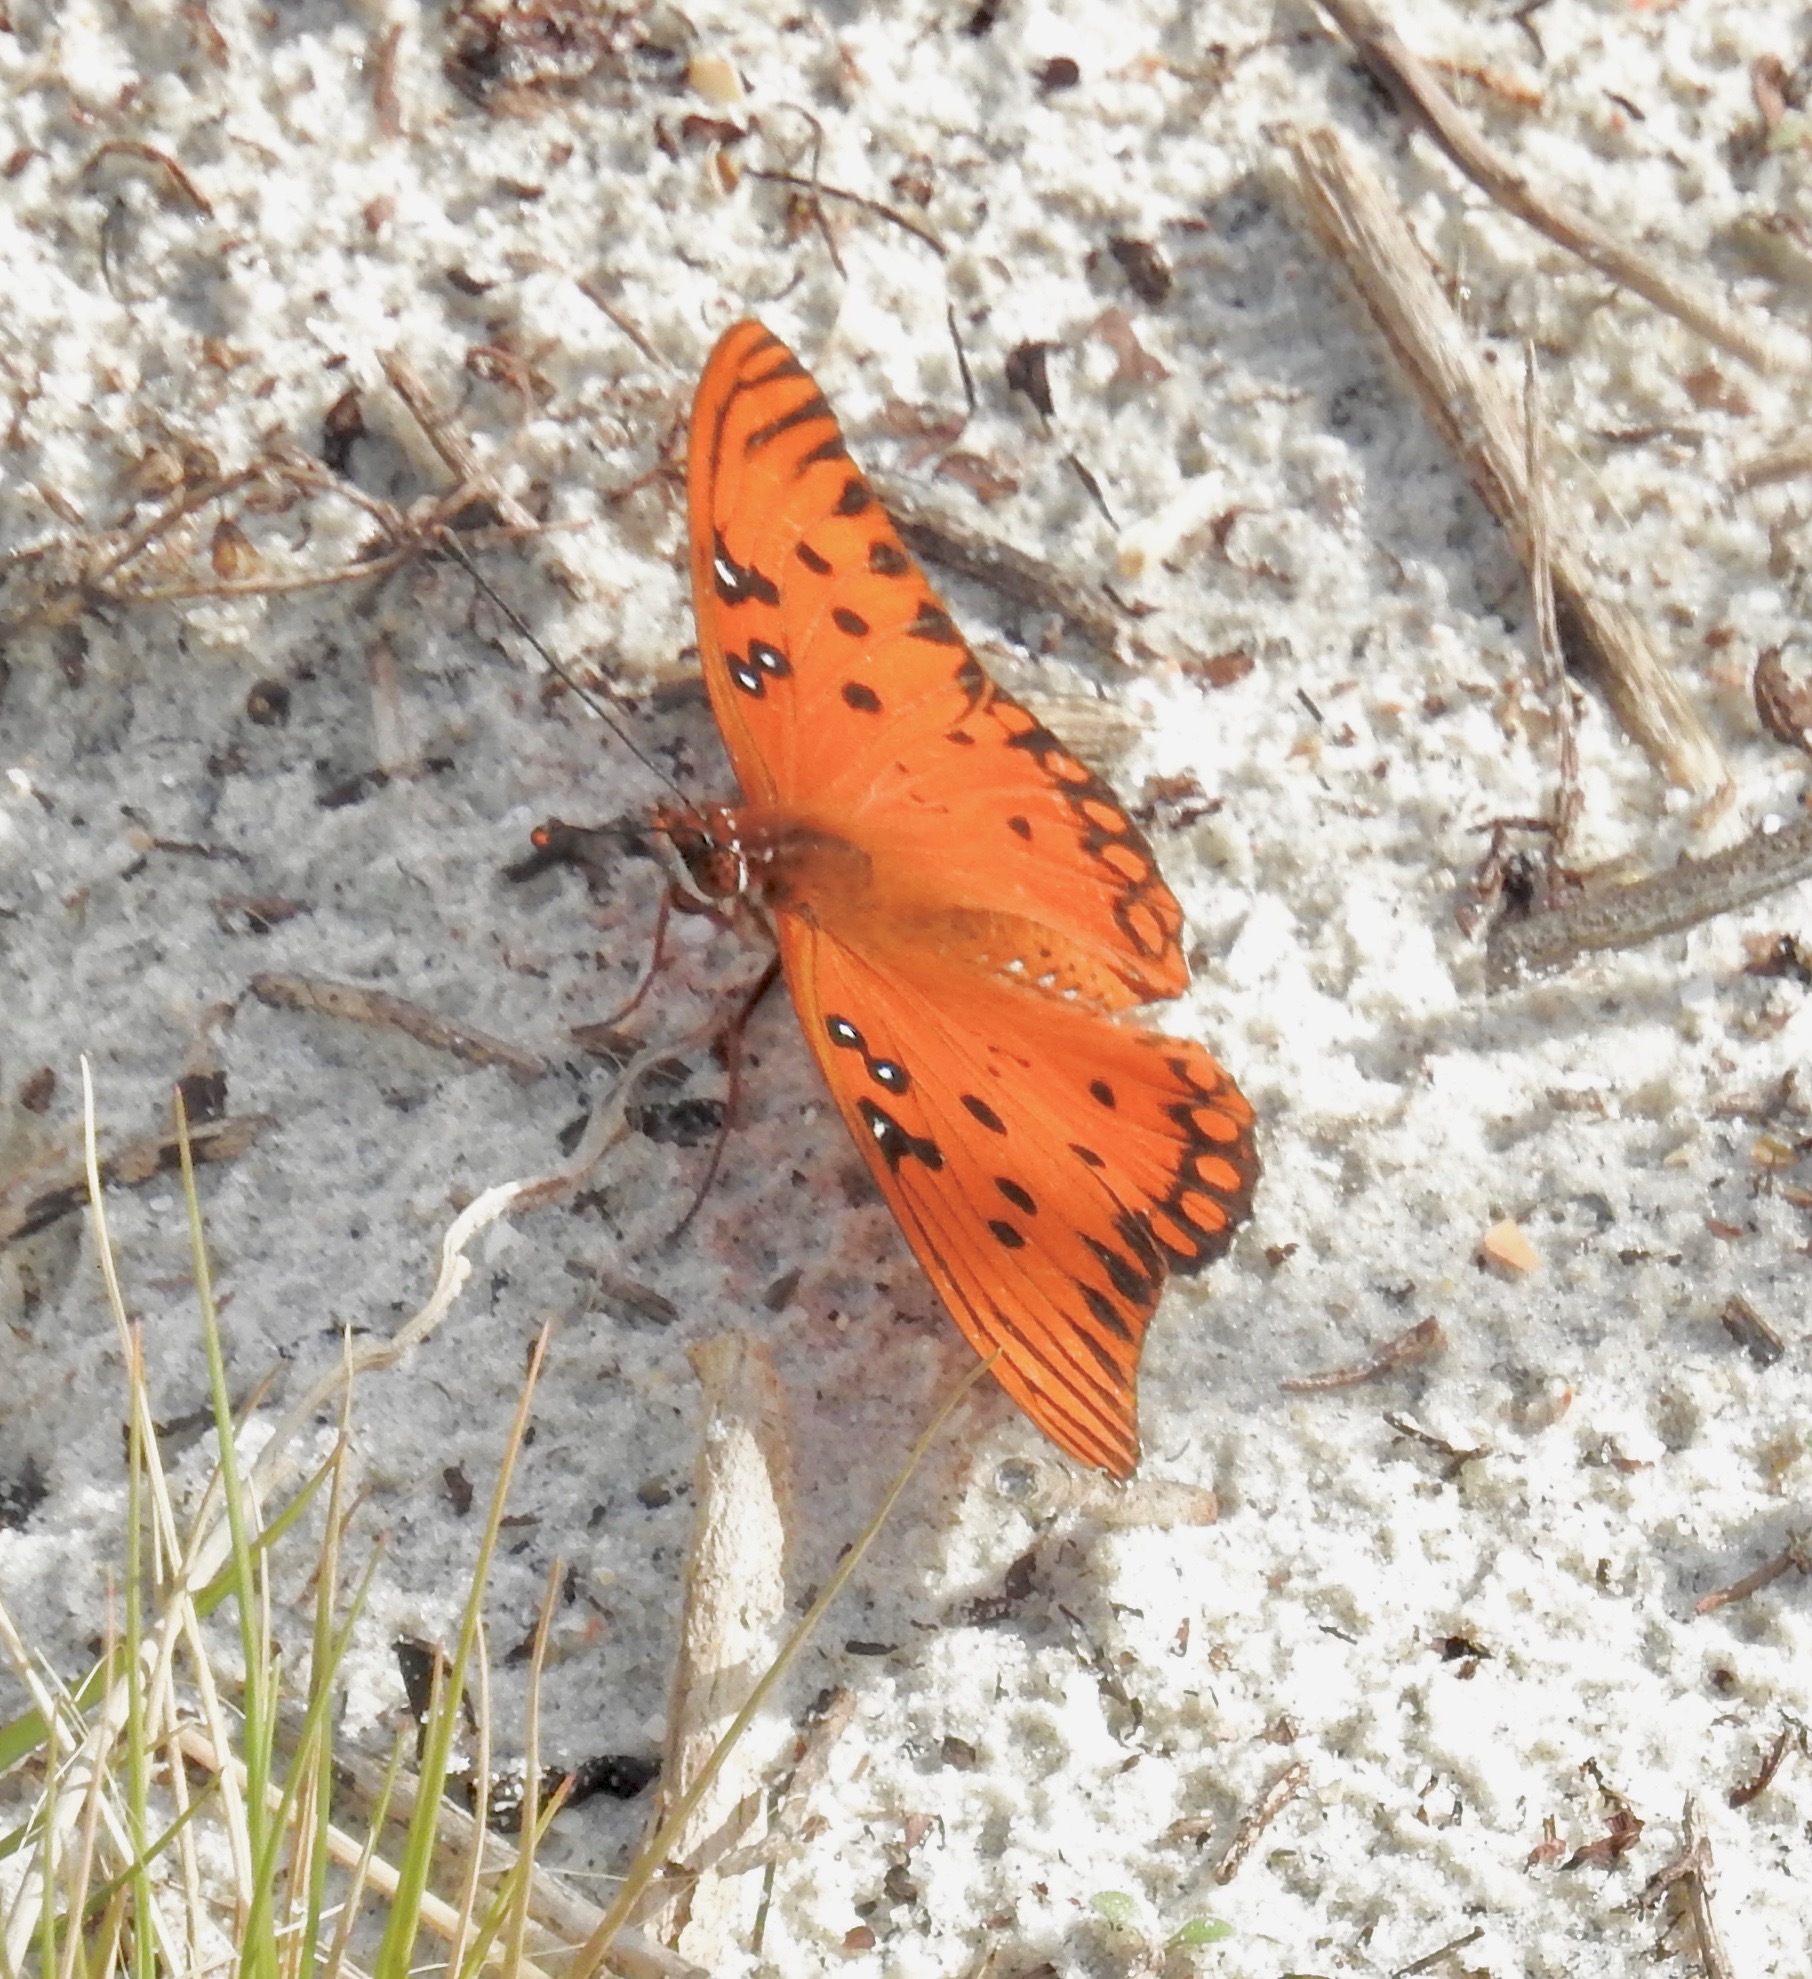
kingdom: Animalia
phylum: Arthropoda
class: Insecta
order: Lepidoptera
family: Nymphalidae
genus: Dione
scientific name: Dione vanillae
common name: Gulf fritillary
